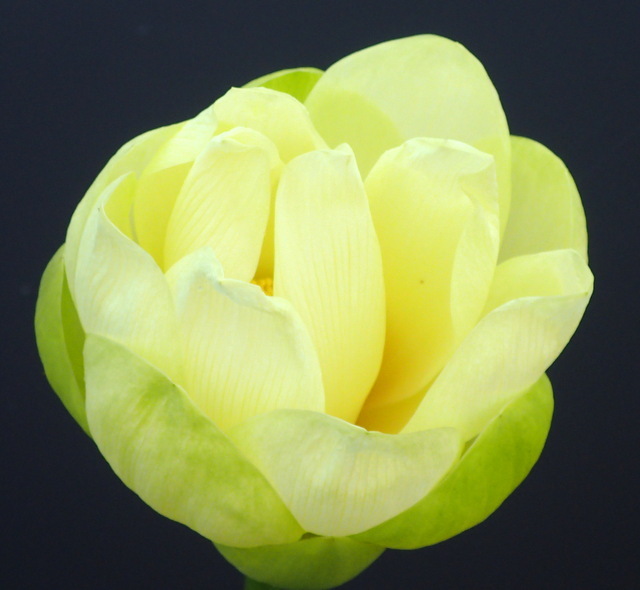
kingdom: Plantae
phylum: Tracheophyta
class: Magnoliopsida
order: Proteales
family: Nelumbonaceae
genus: Nelumbo
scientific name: Nelumbo lutea
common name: American lotus
